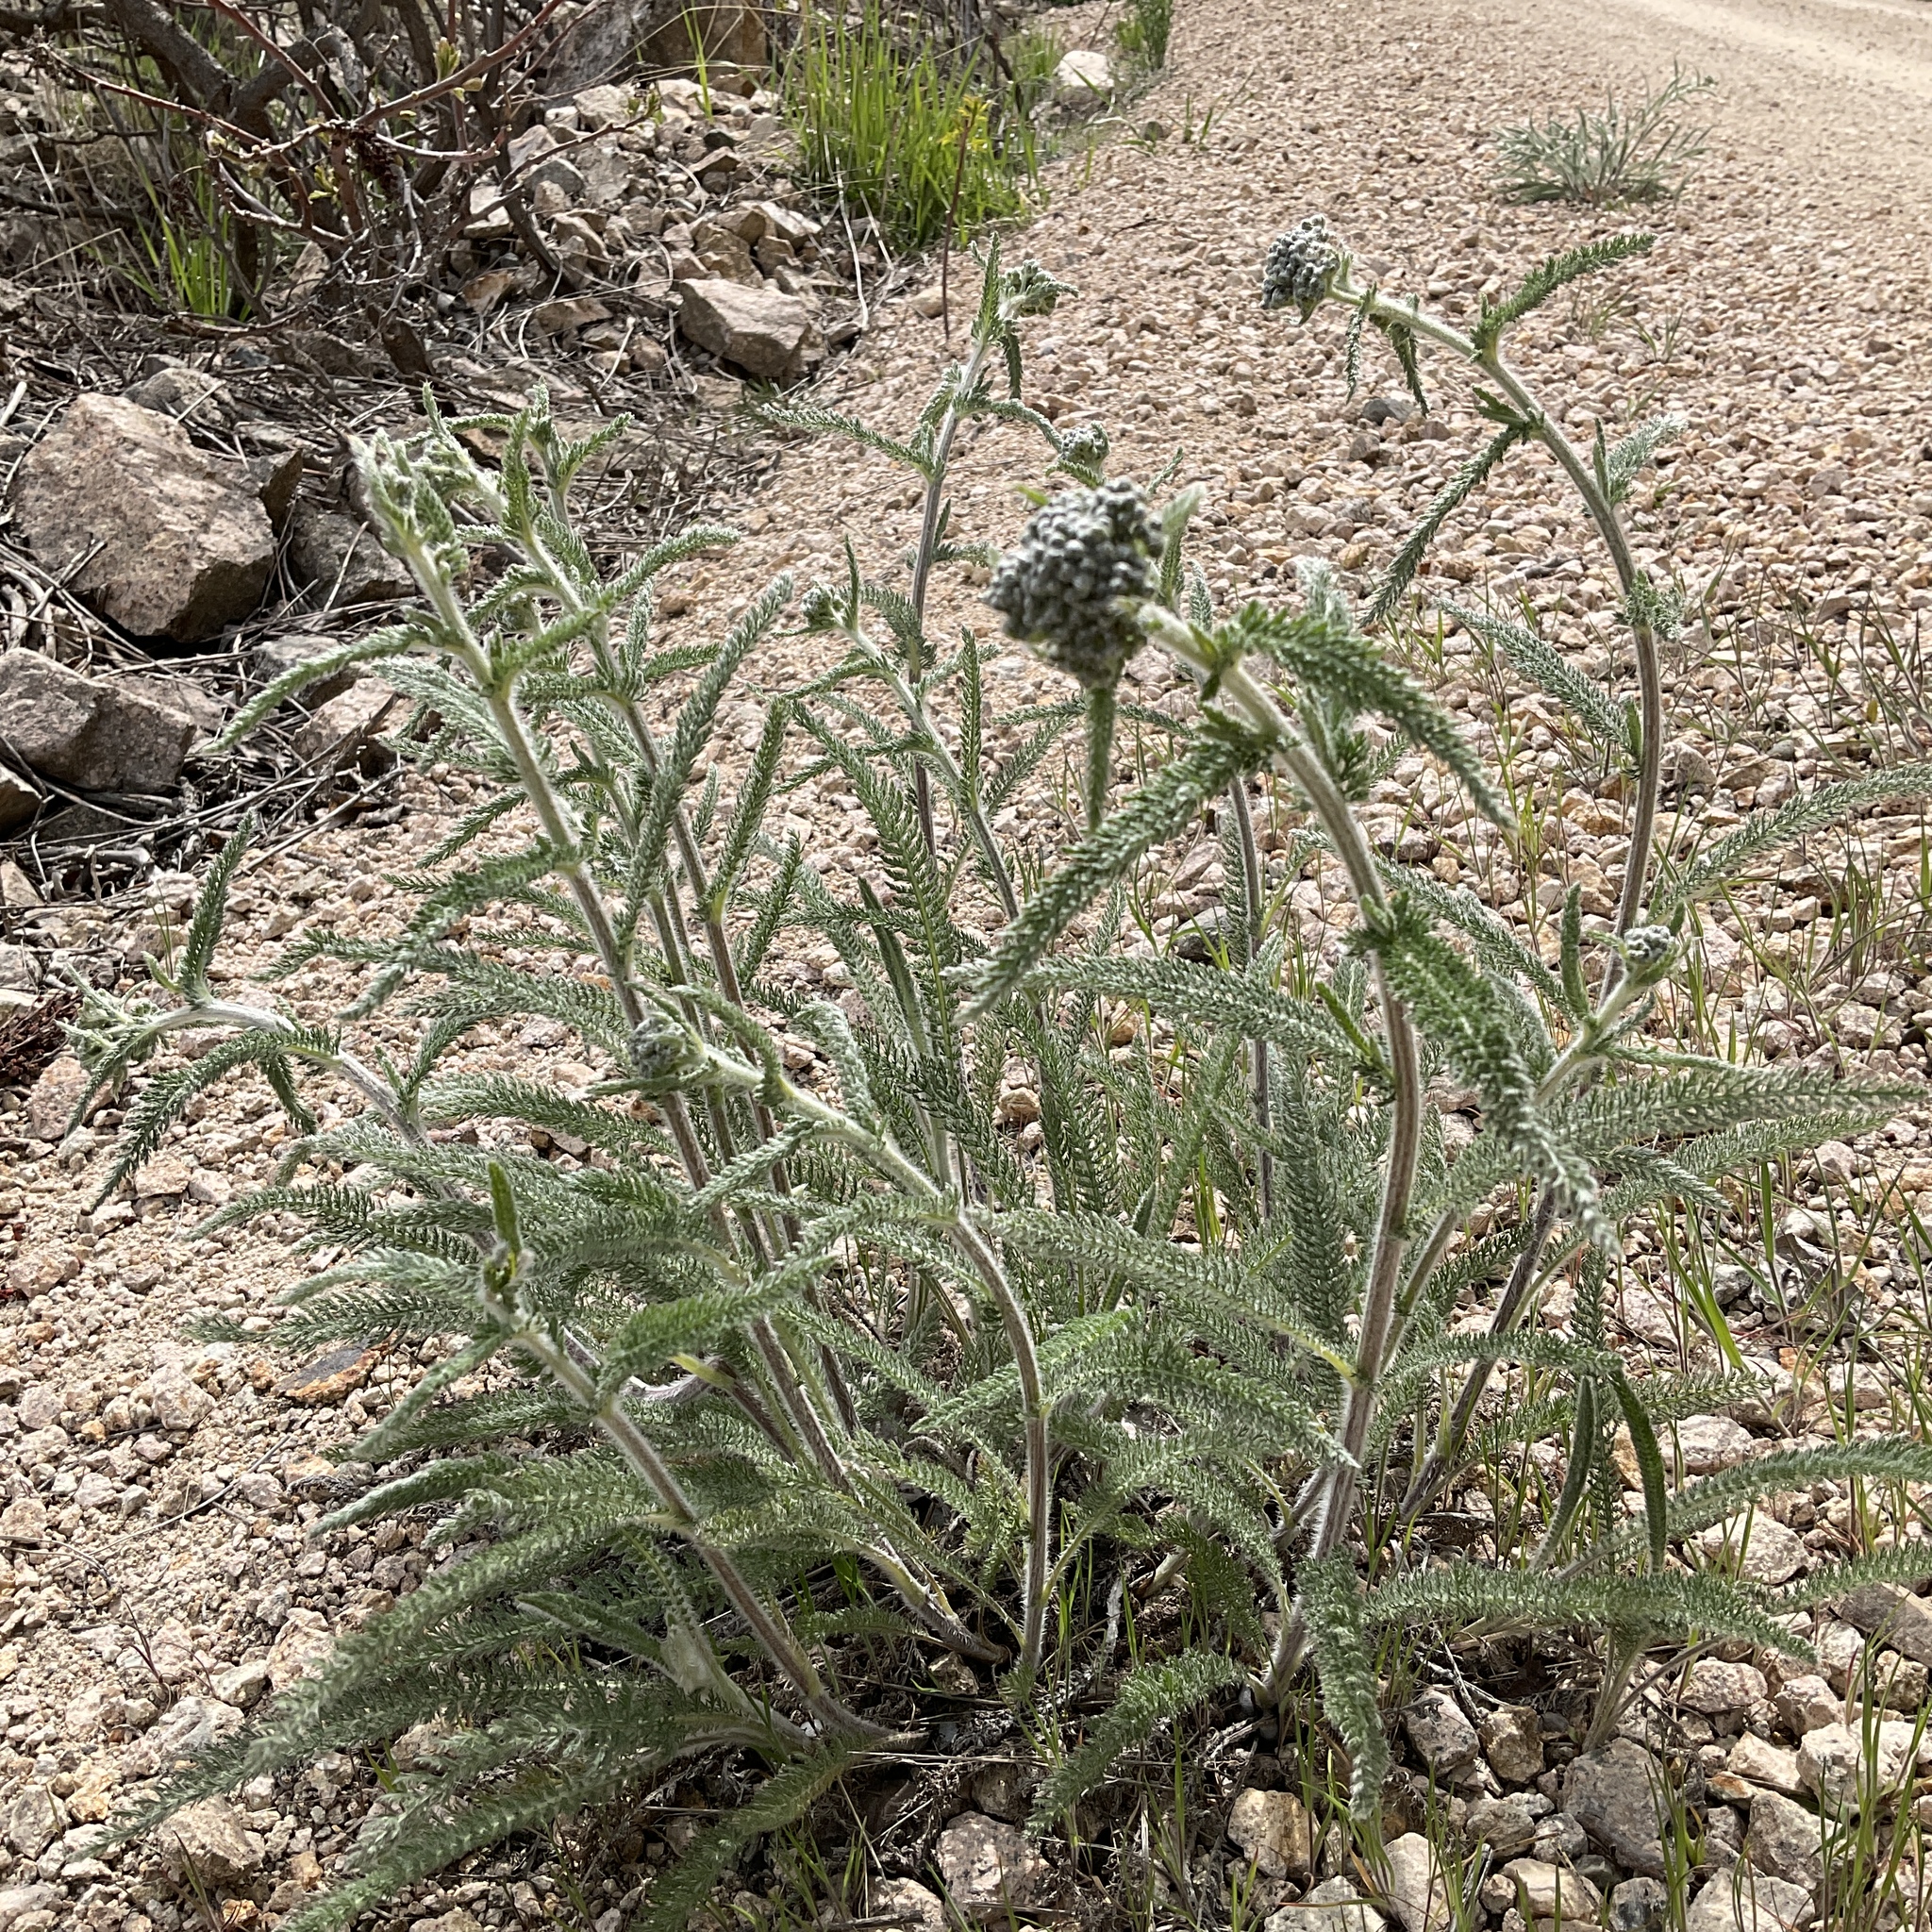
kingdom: Plantae
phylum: Tracheophyta
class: Magnoliopsida
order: Asterales
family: Asteraceae
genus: Achillea
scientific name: Achillea millefolium
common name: Yarrow
